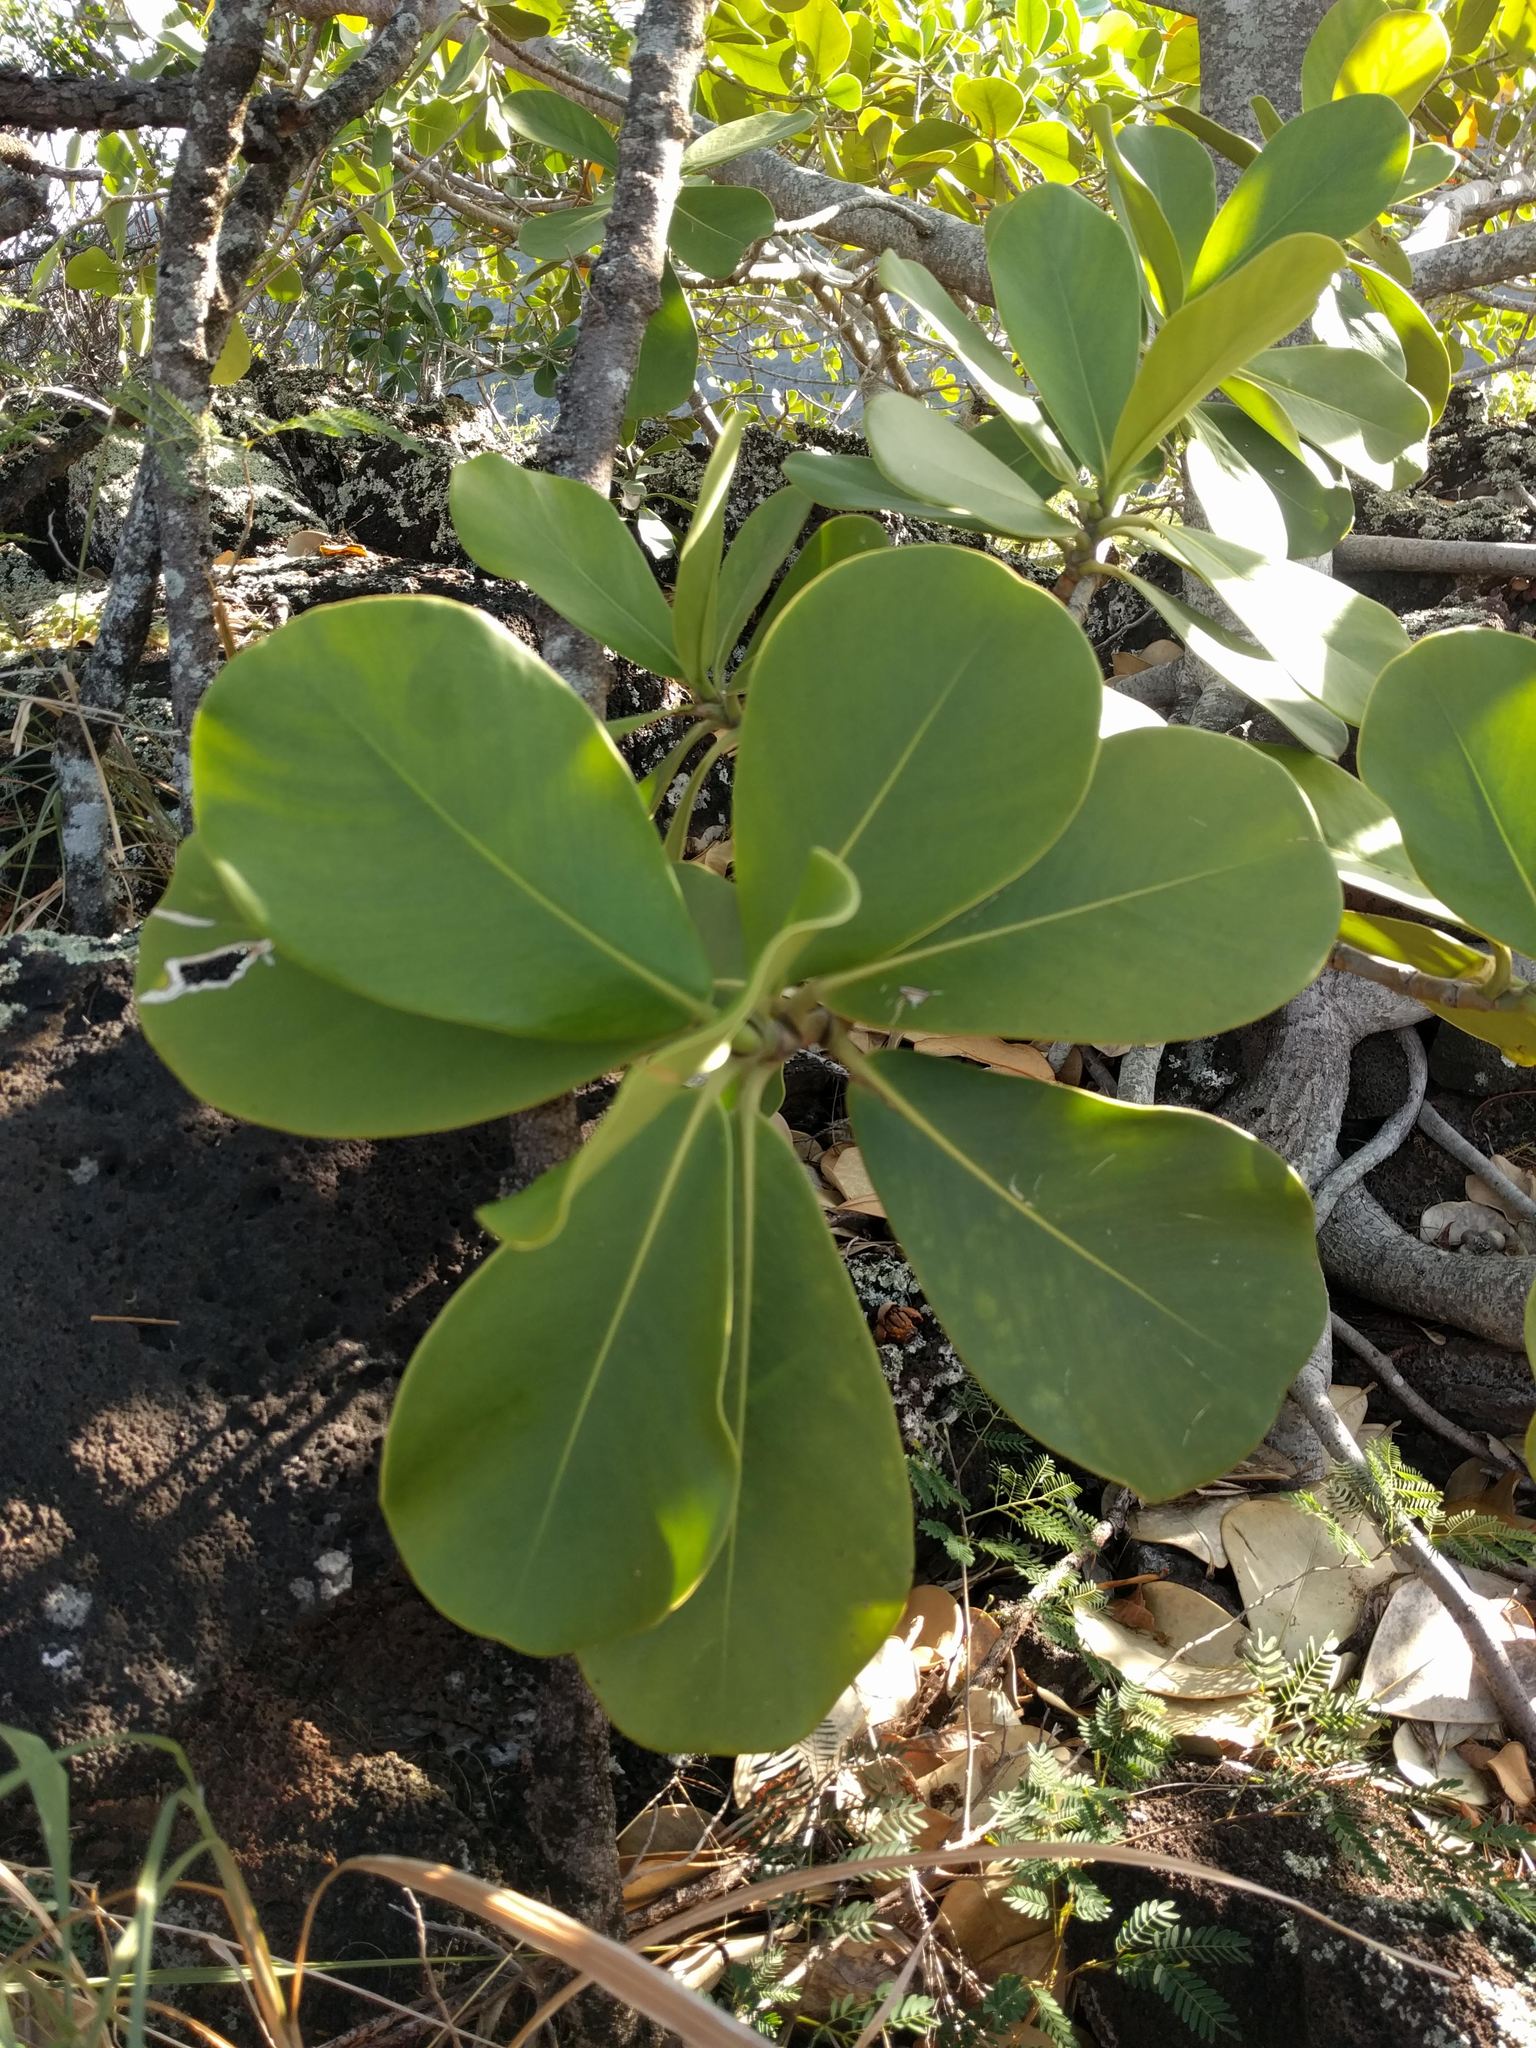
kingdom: Plantae
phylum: Tracheophyta
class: Magnoliopsida
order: Malpighiales
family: Clusiaceae
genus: Clusia
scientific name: Clusia rosea
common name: Scotch attorney
